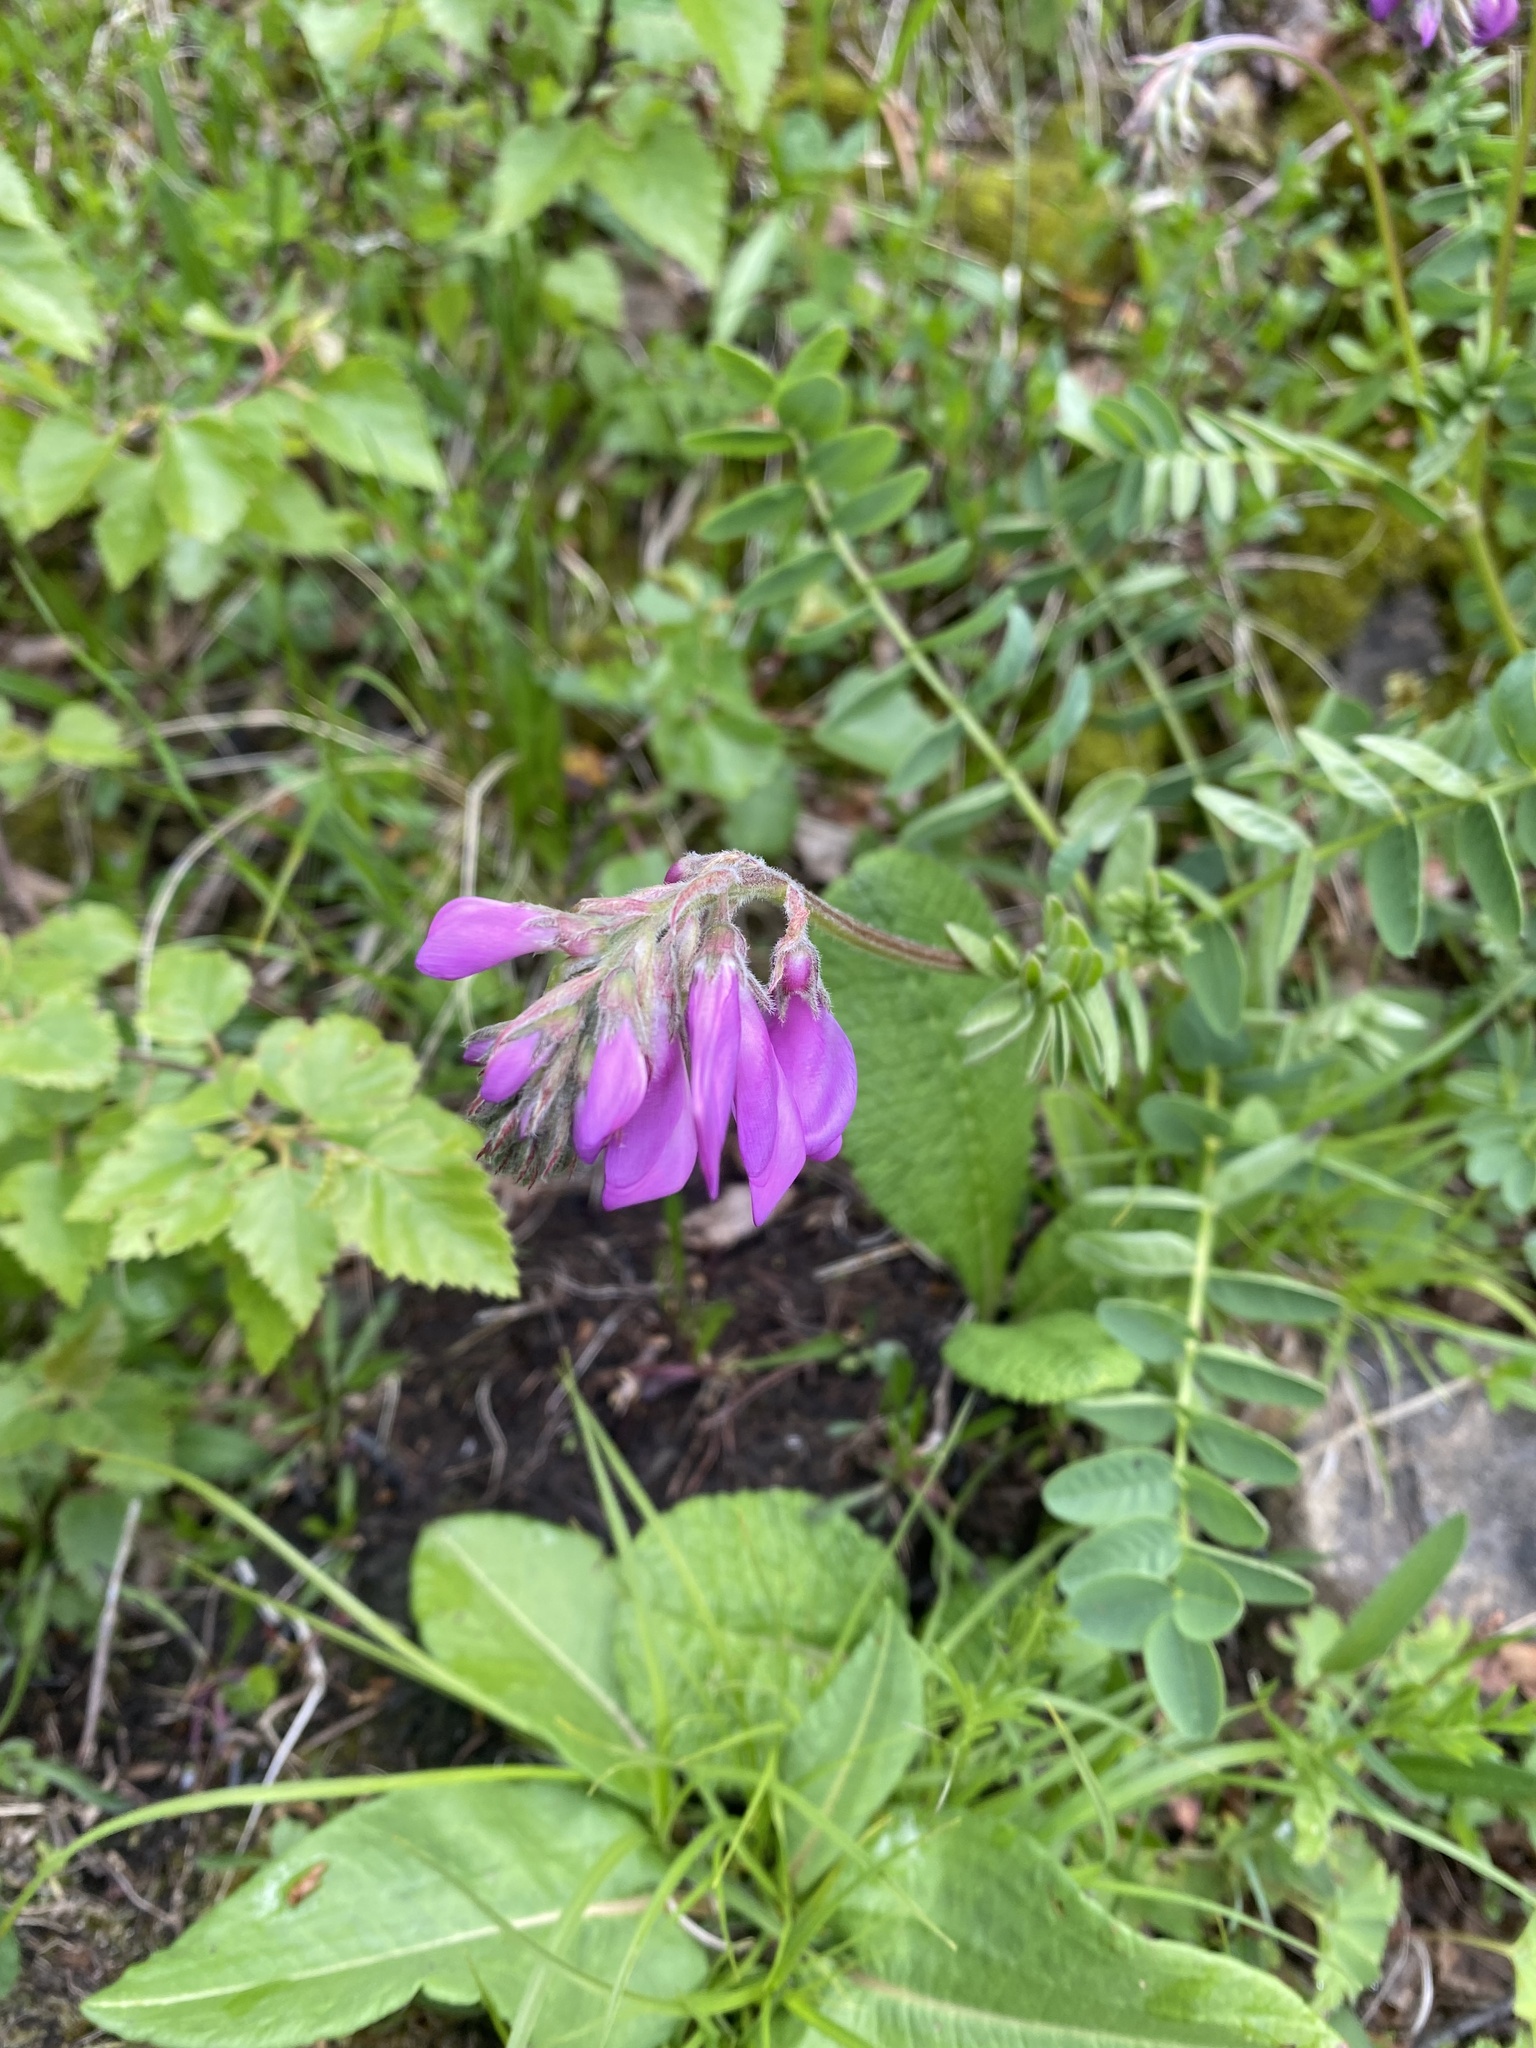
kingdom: Plantae
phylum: Tracheophyta
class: Magnoliopsida
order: Fabales
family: Fabaceae
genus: Hedysarum
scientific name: Hedysarum caucasicum
